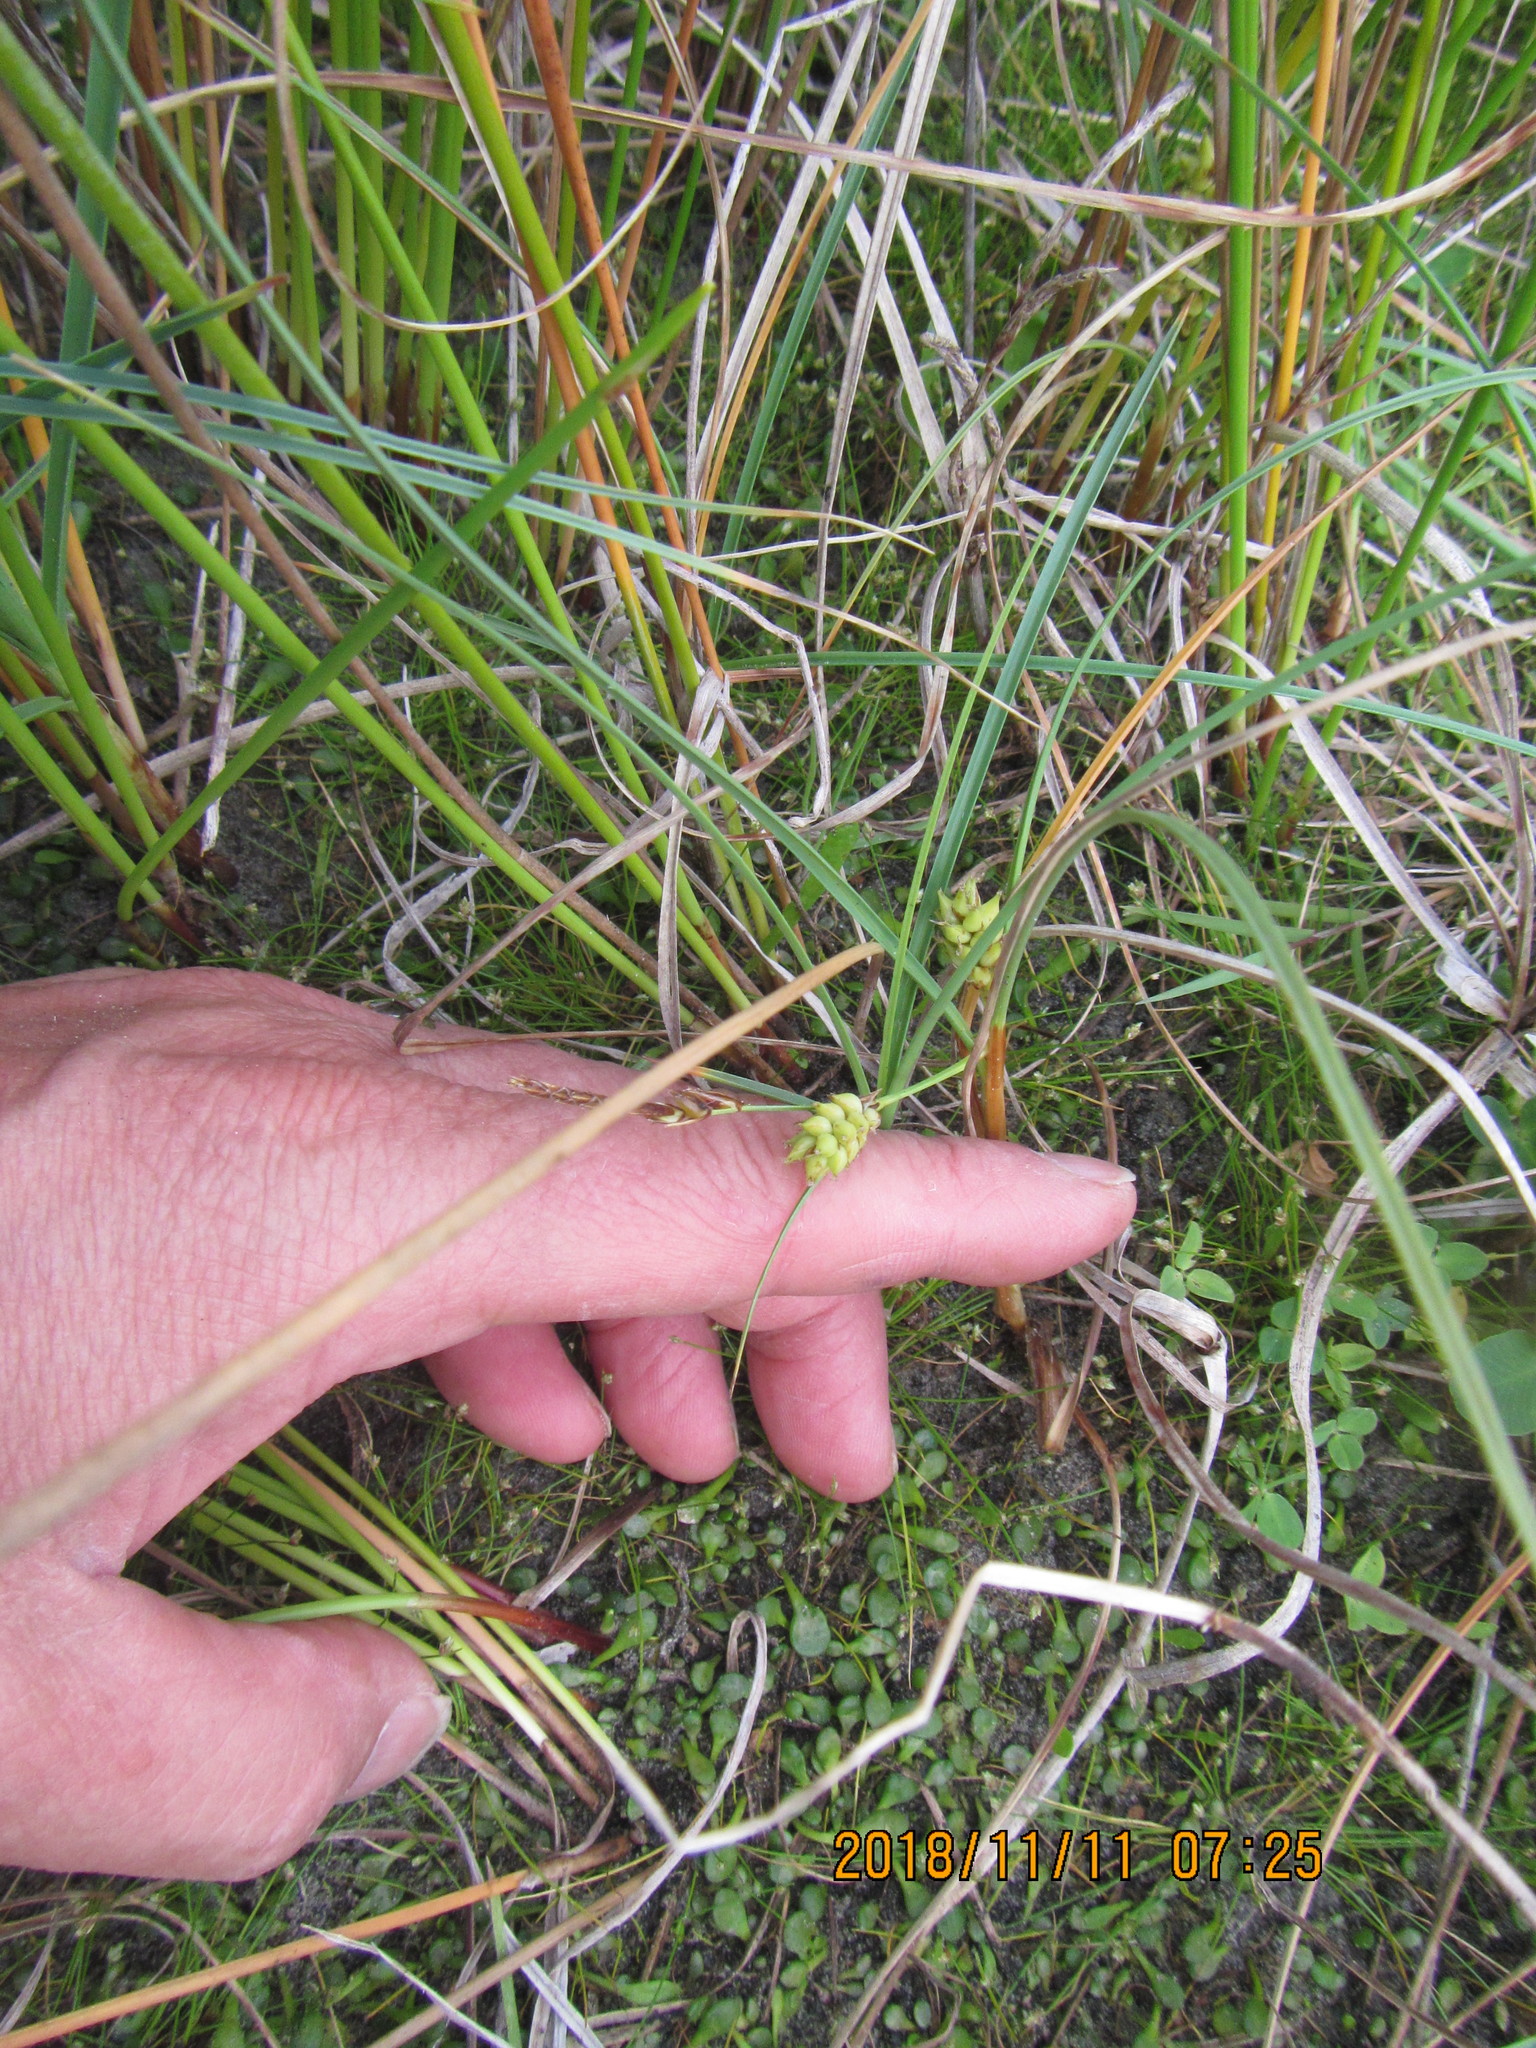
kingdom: Plantae
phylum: Tracheophyta
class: Liliopsida
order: Poales
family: Cyperaceae
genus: Carex
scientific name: Carex pumila
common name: Dwarf sedge
